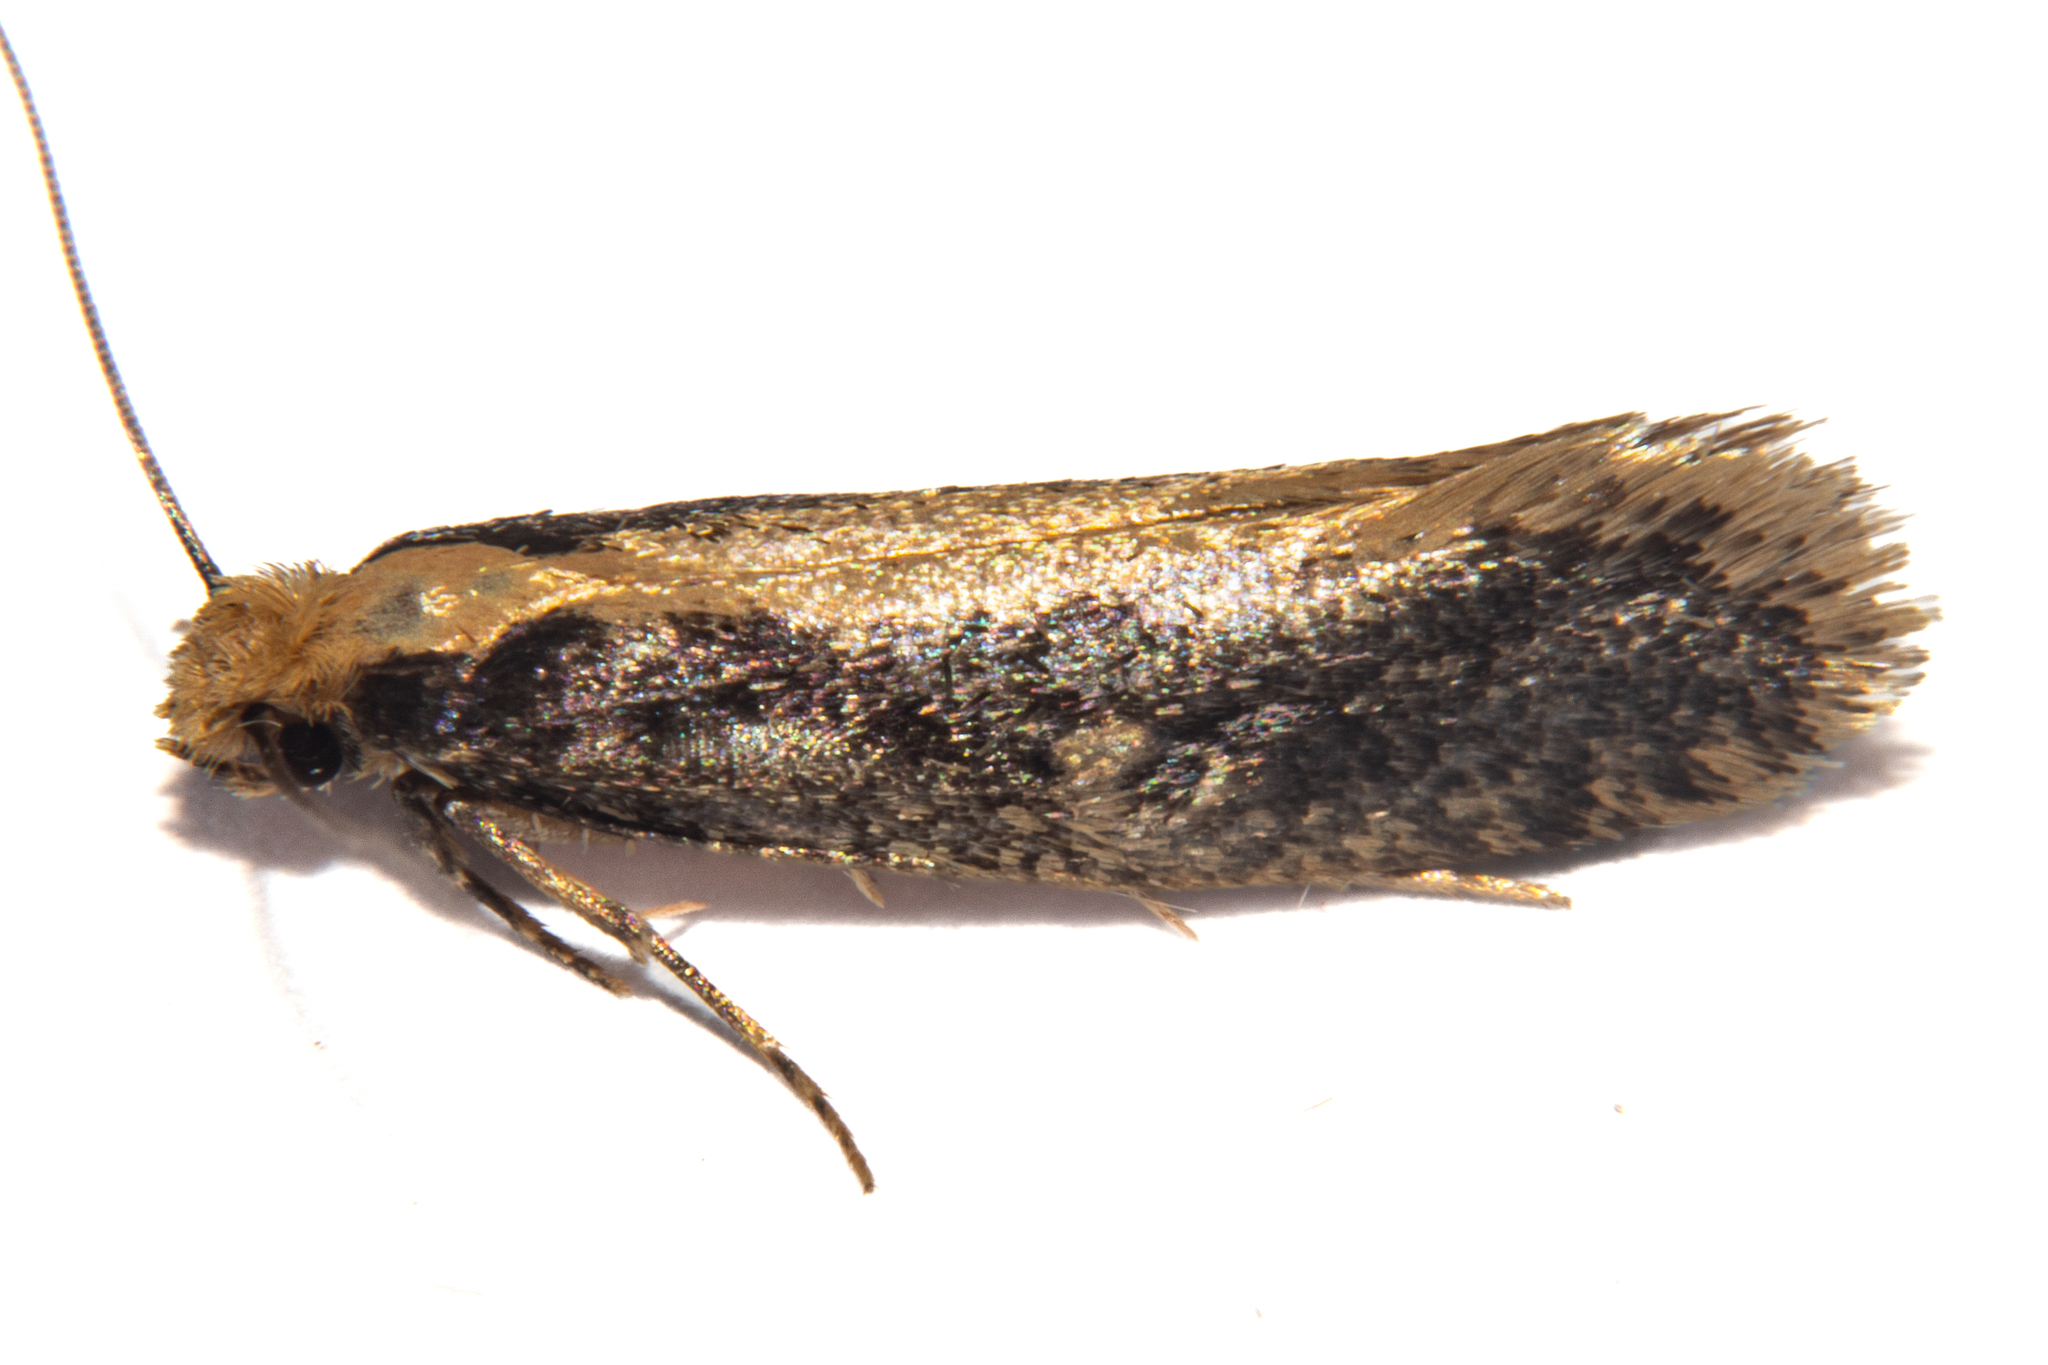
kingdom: Animalia
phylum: Arthropoda
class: Insecta
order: Lepidoptera
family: Tineidae
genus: Monopis
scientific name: Monopis crocicapitella
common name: Moth
